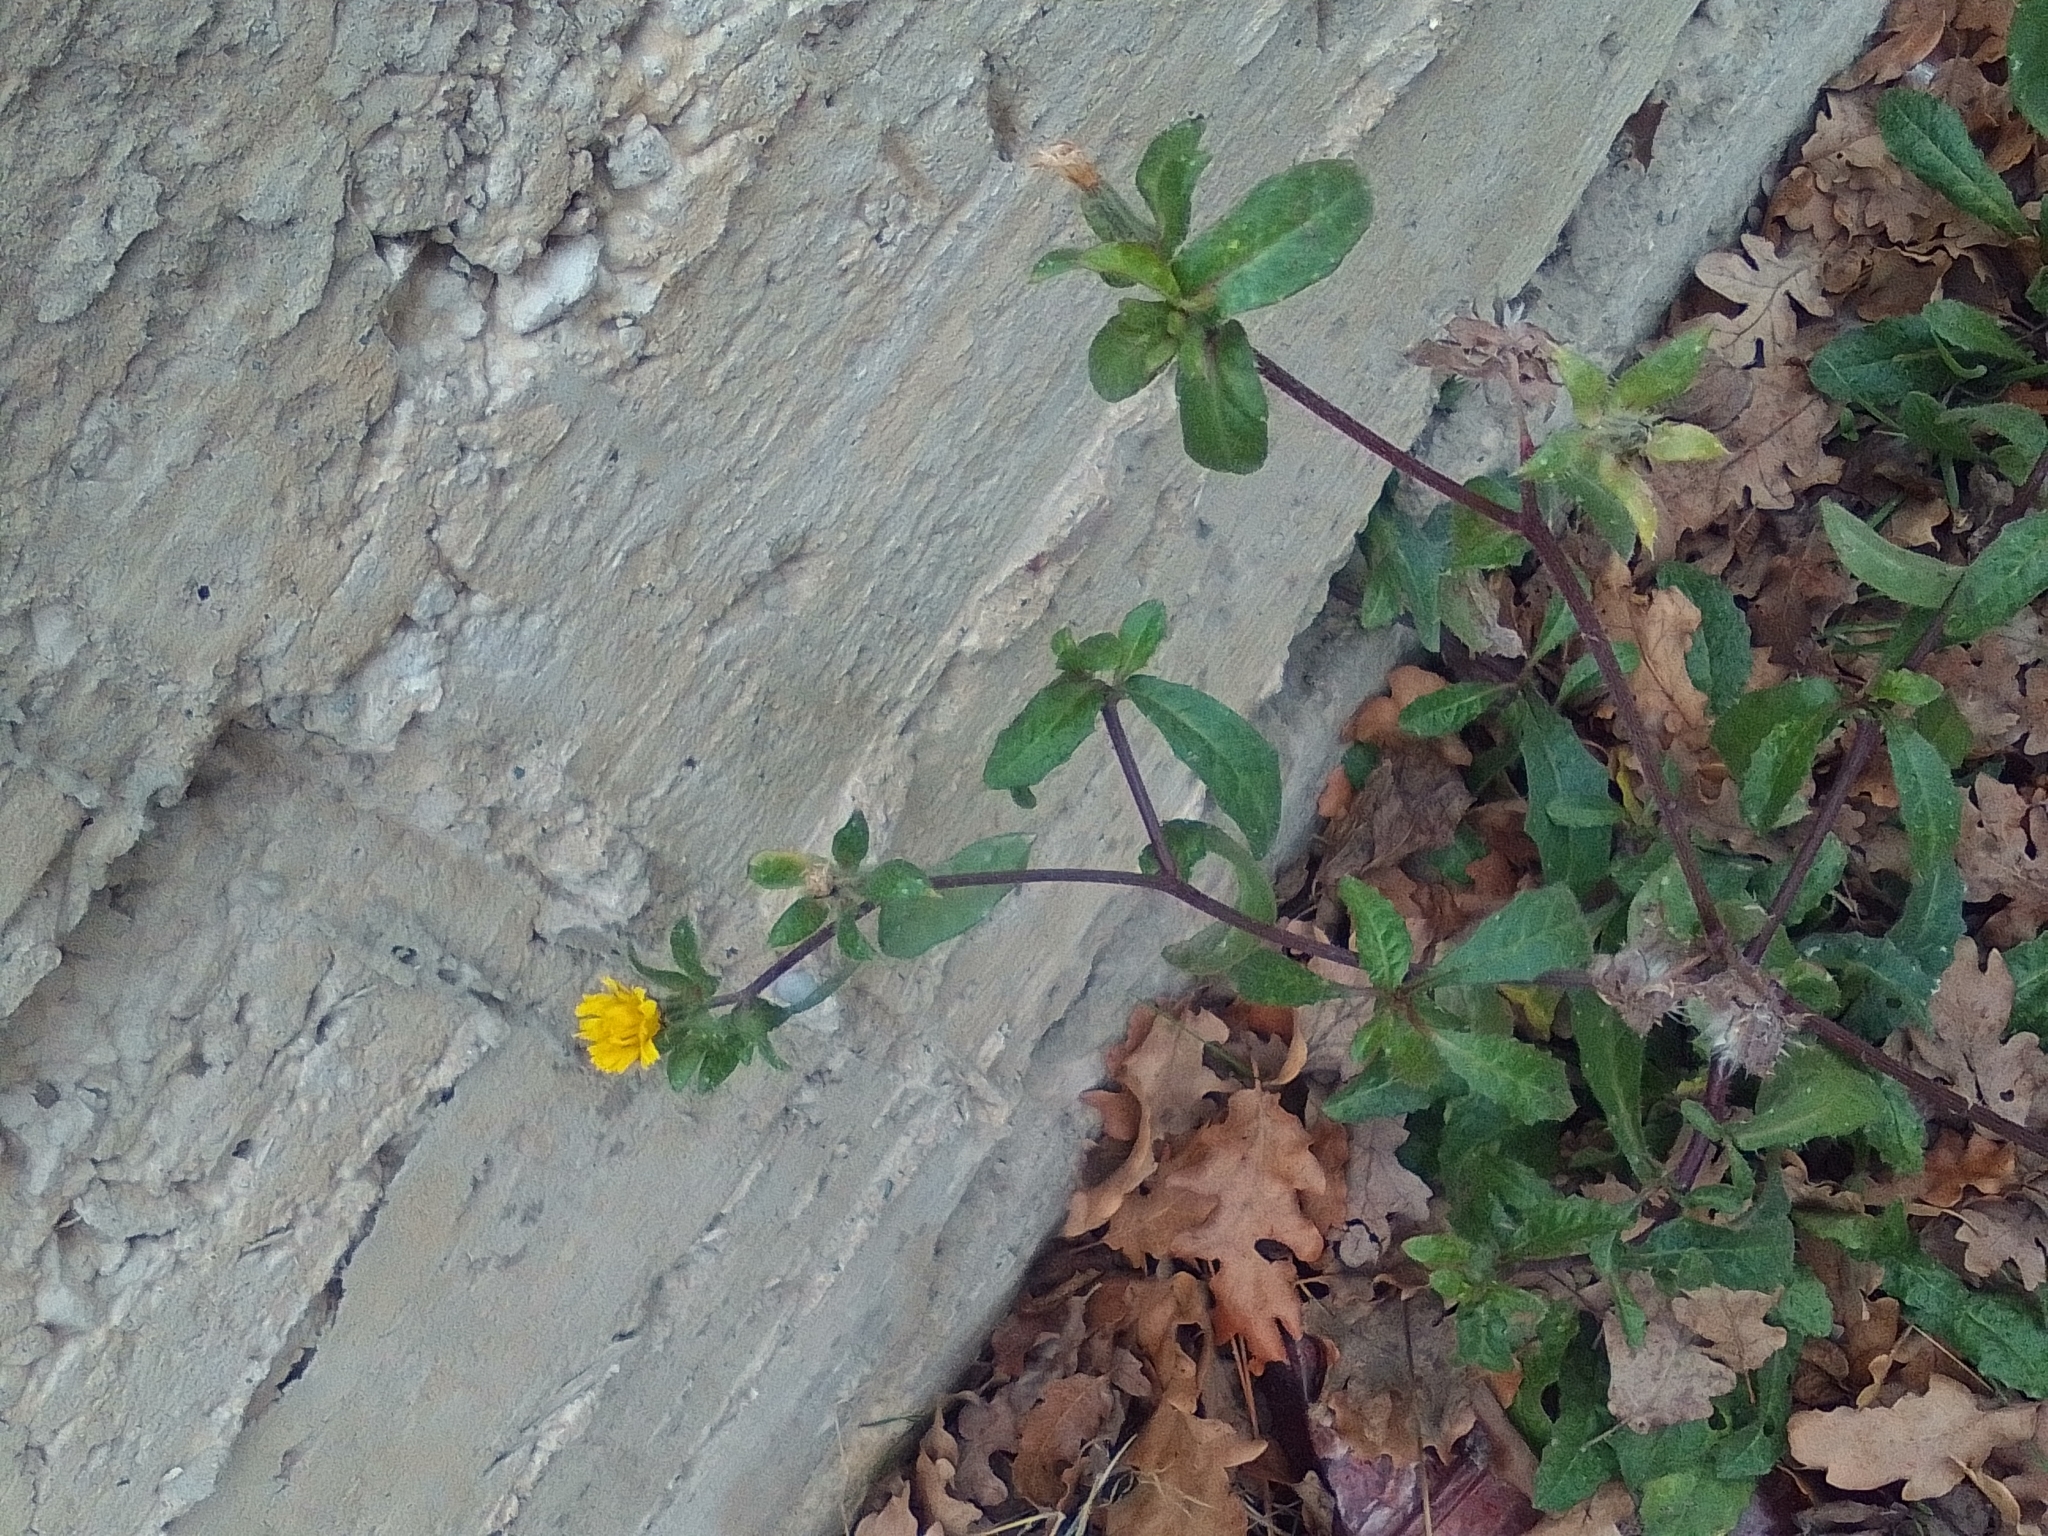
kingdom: Plantae
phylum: Tracheophyta
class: Magnoliopsida
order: Asterales
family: Asteraceae
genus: Helminthotheca
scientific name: Helminthotheca echioides
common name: Ox-tongue
